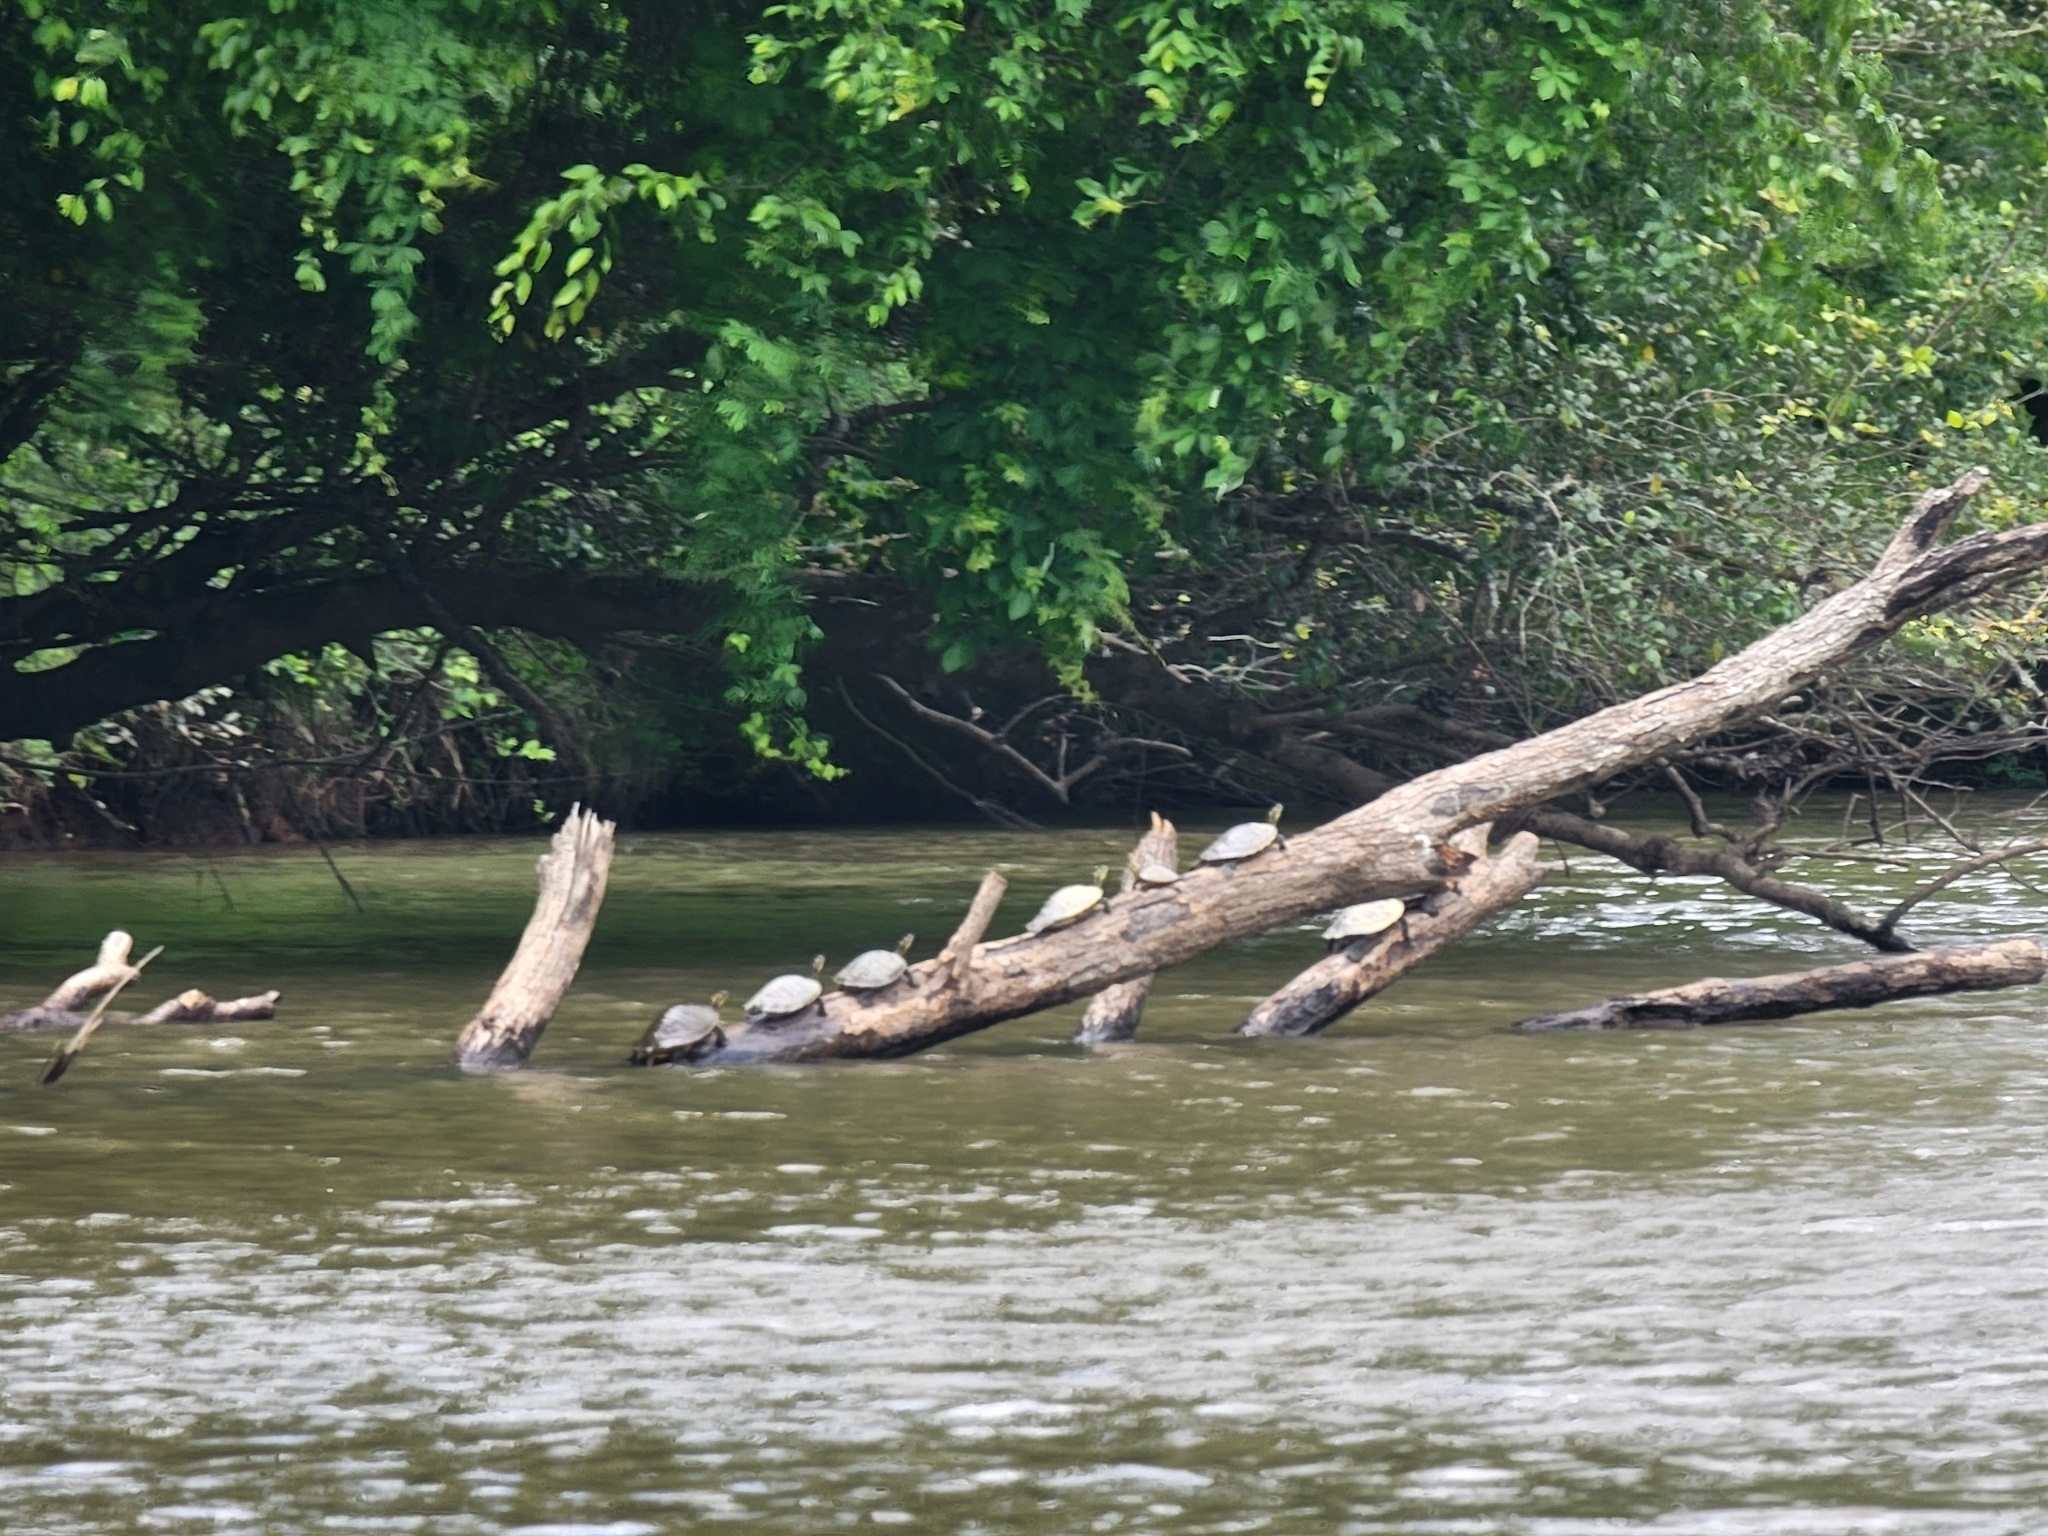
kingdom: Animalia
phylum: Chordata
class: Testudines
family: Emydidae
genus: Trachemys
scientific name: Trachemys scripta
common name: Slider
